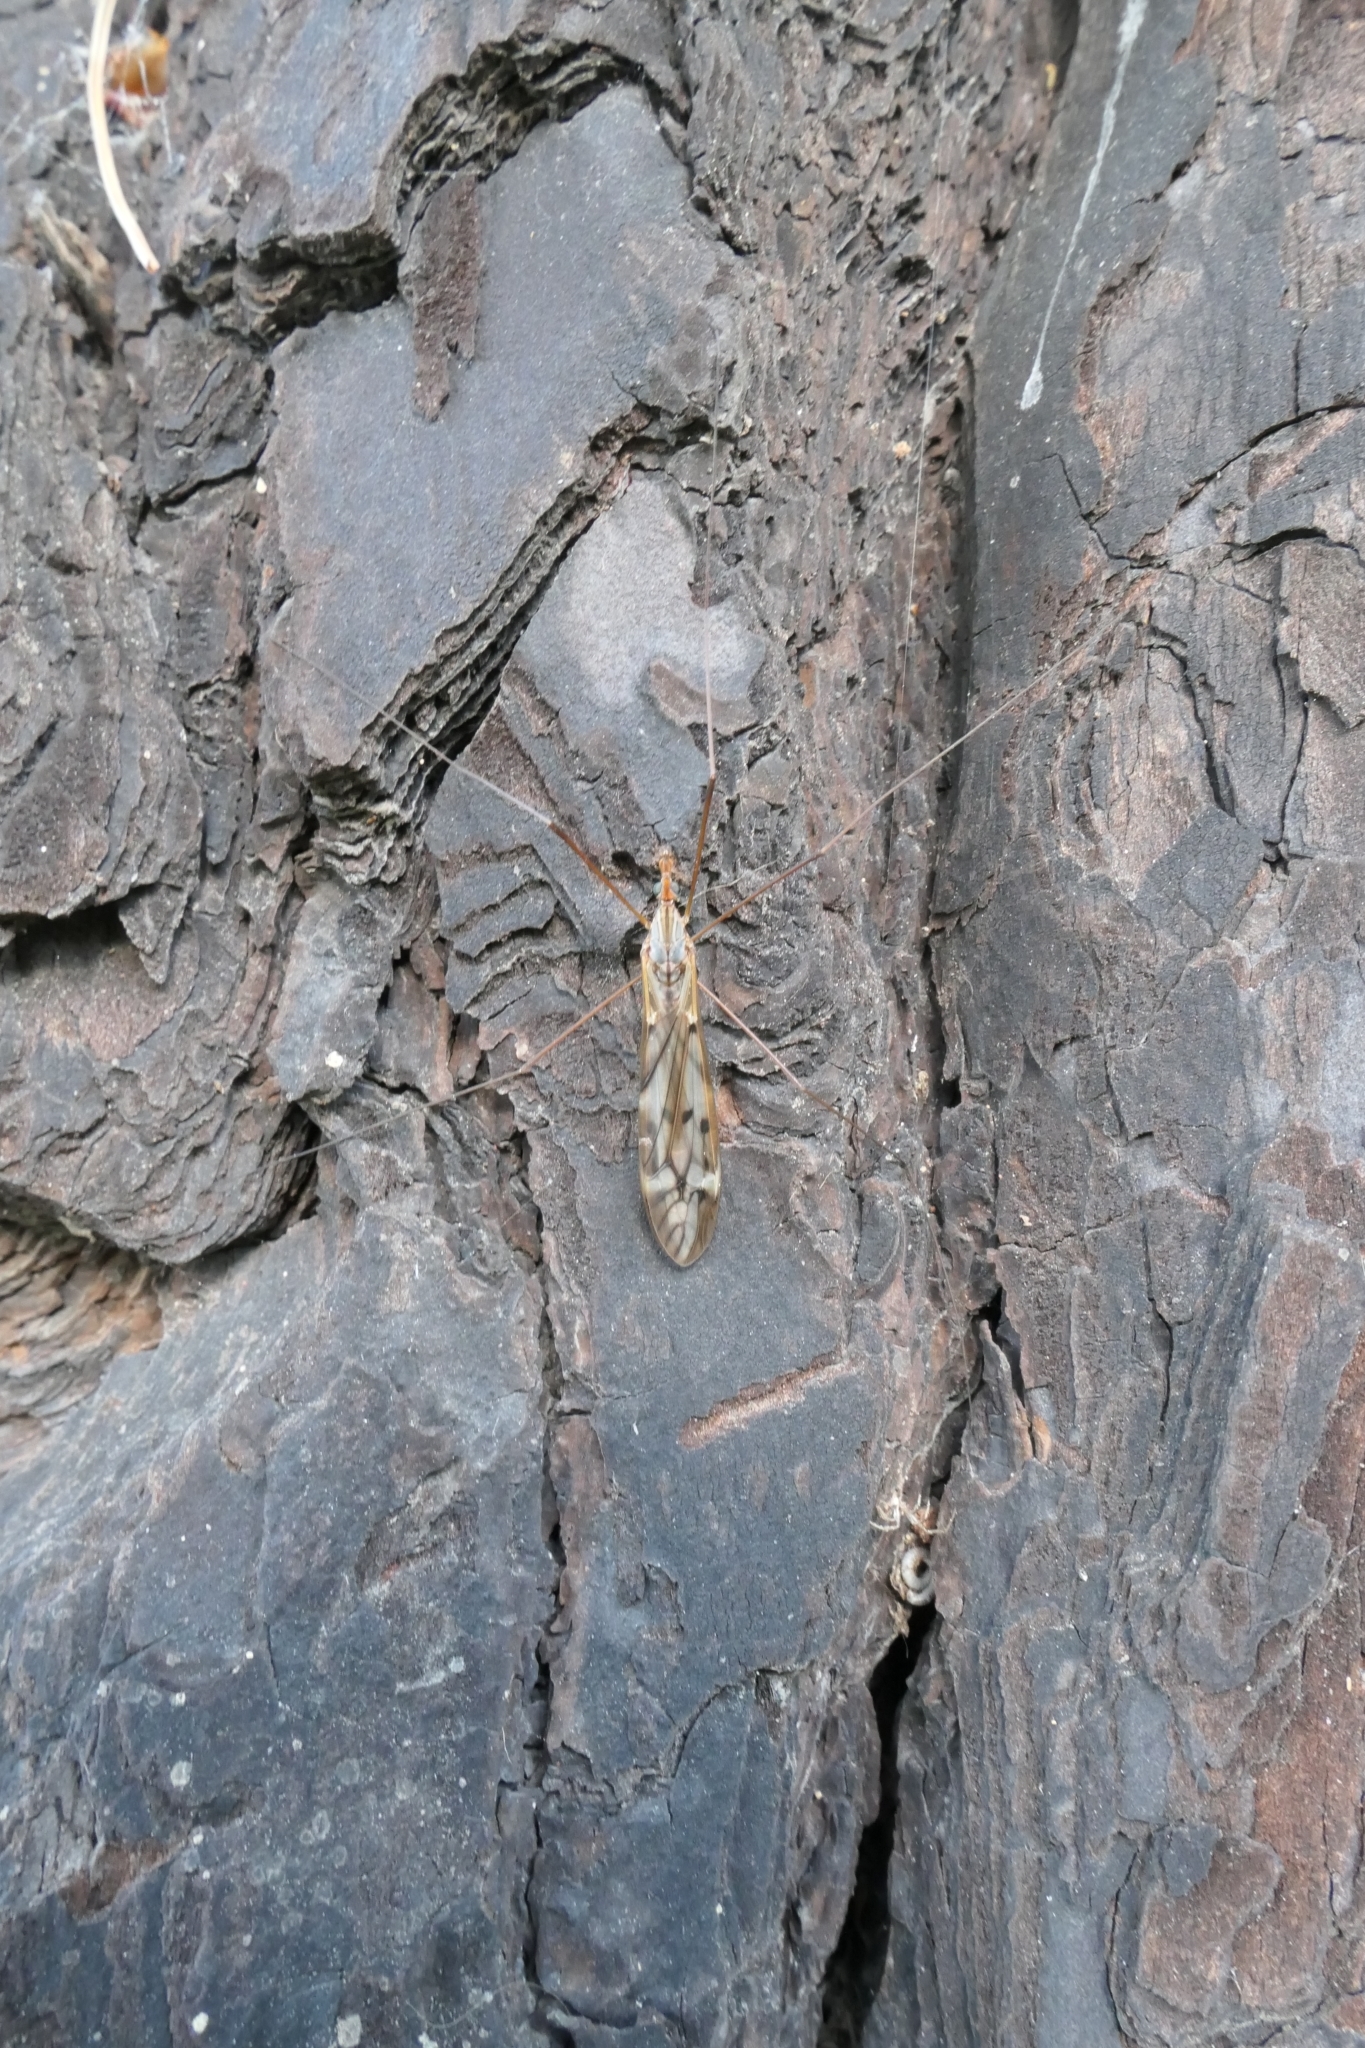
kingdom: Animalia
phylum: Arthropoda
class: Insecta
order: Diptera
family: Tipulidae
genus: Zelandotipula
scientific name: Zelandotipula novarae
